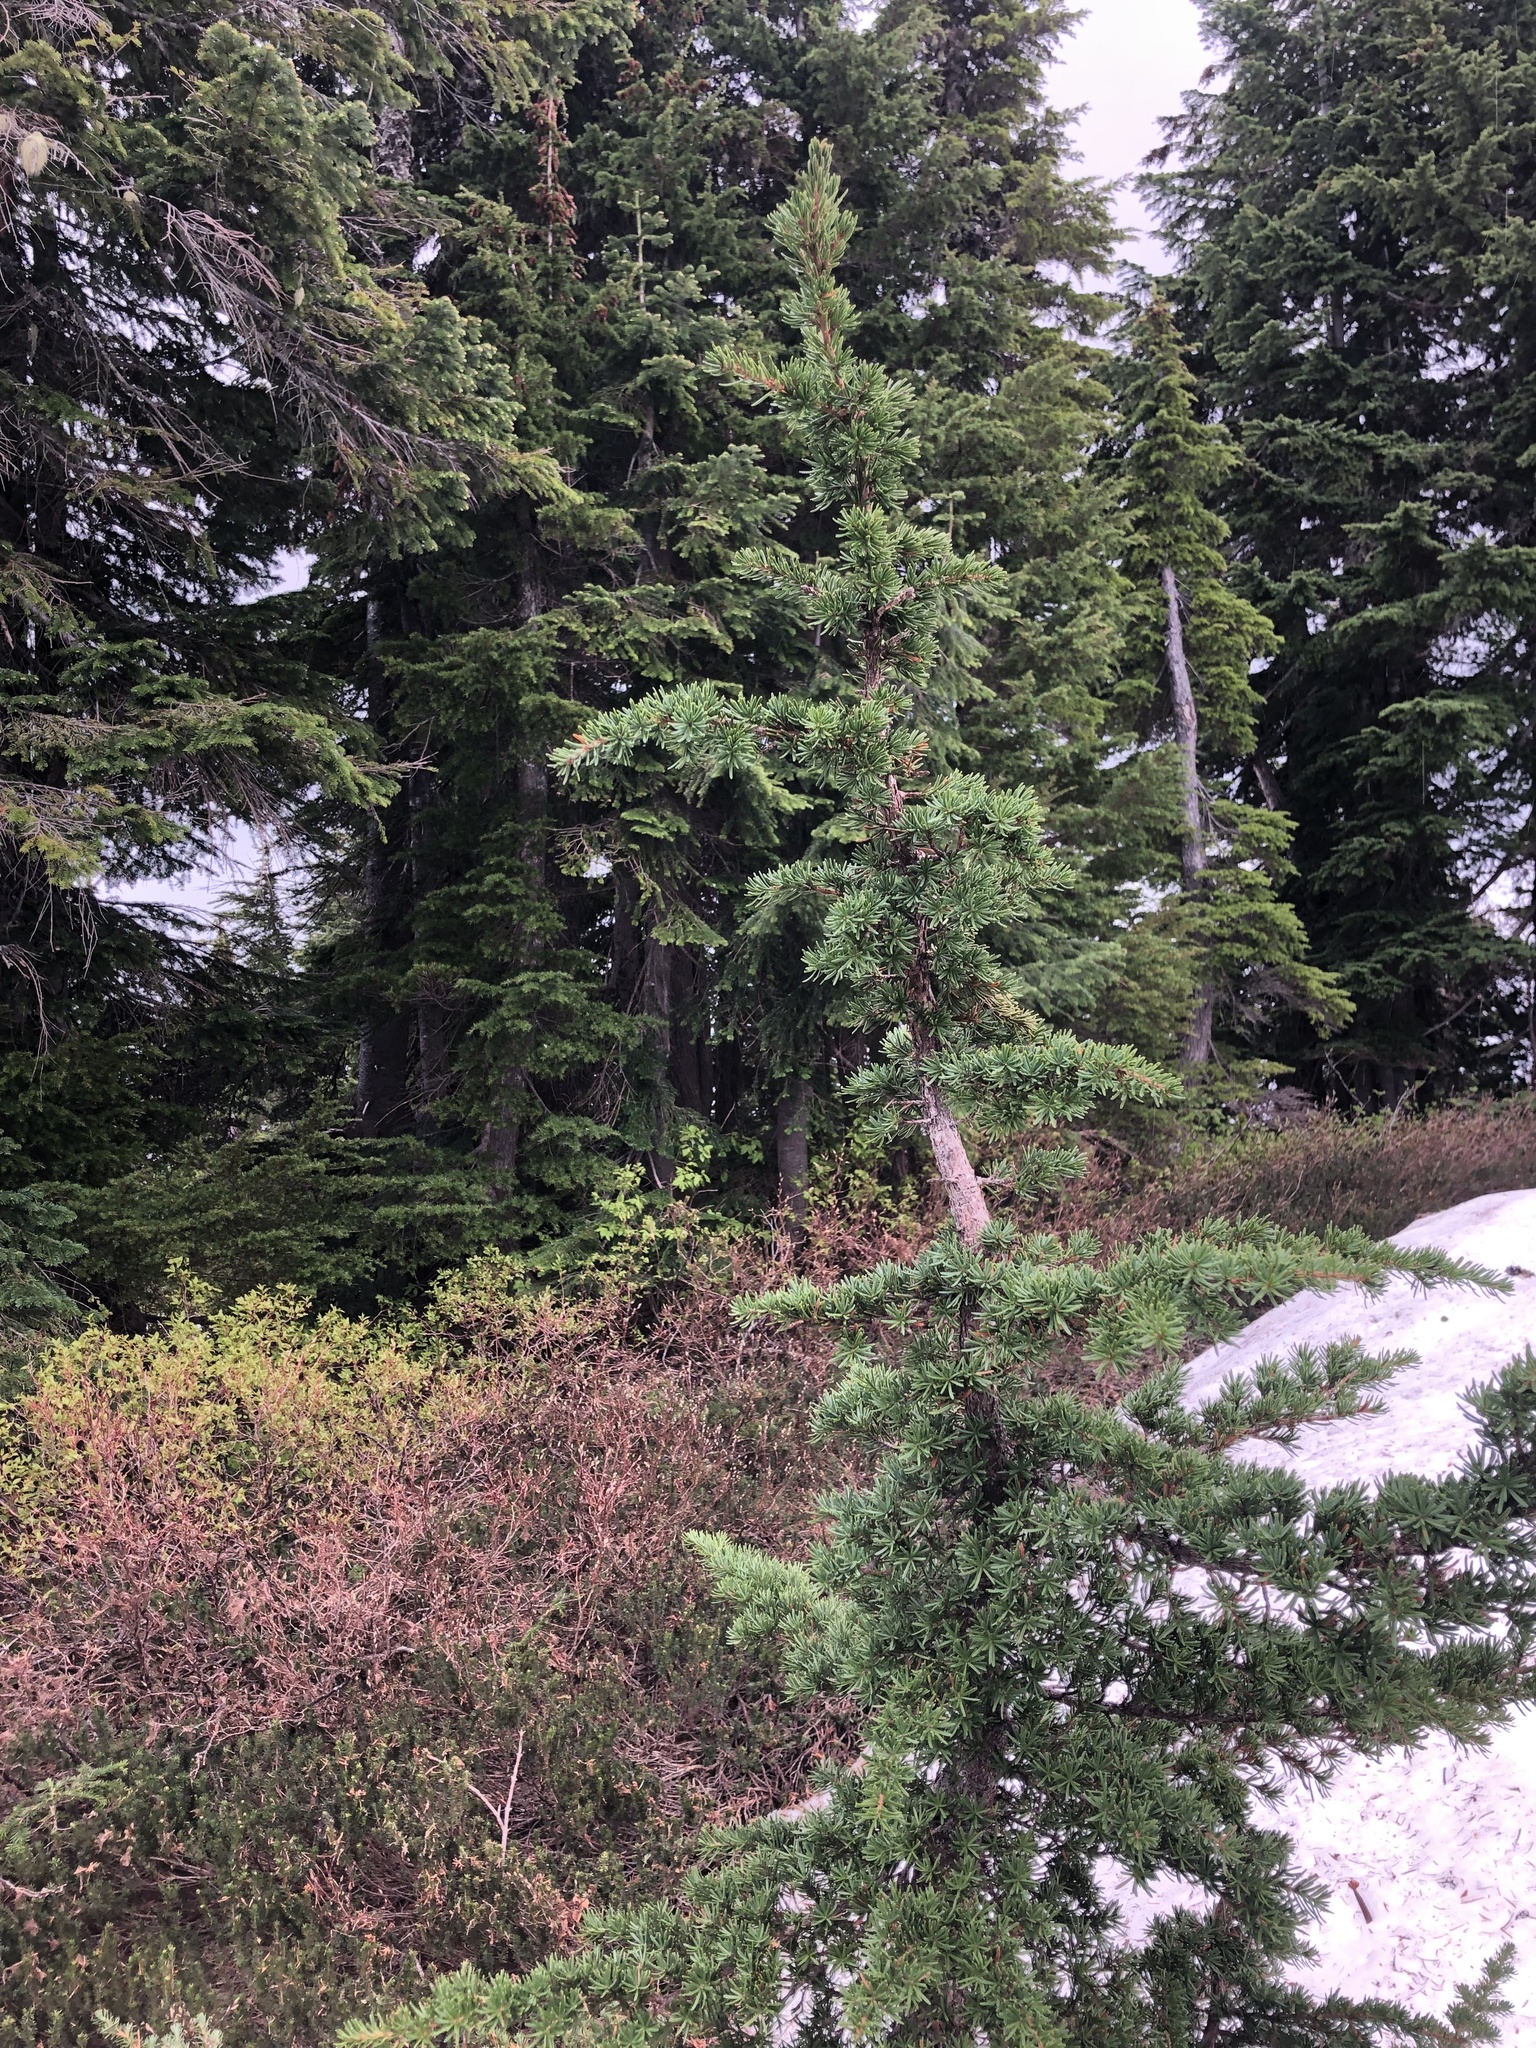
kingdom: Plantae
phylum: Tracheophyta
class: Pinopsida
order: Pinales
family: Pinaceae
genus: Tsuga
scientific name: Tsuga mertensiana
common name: Mountain hemlock
